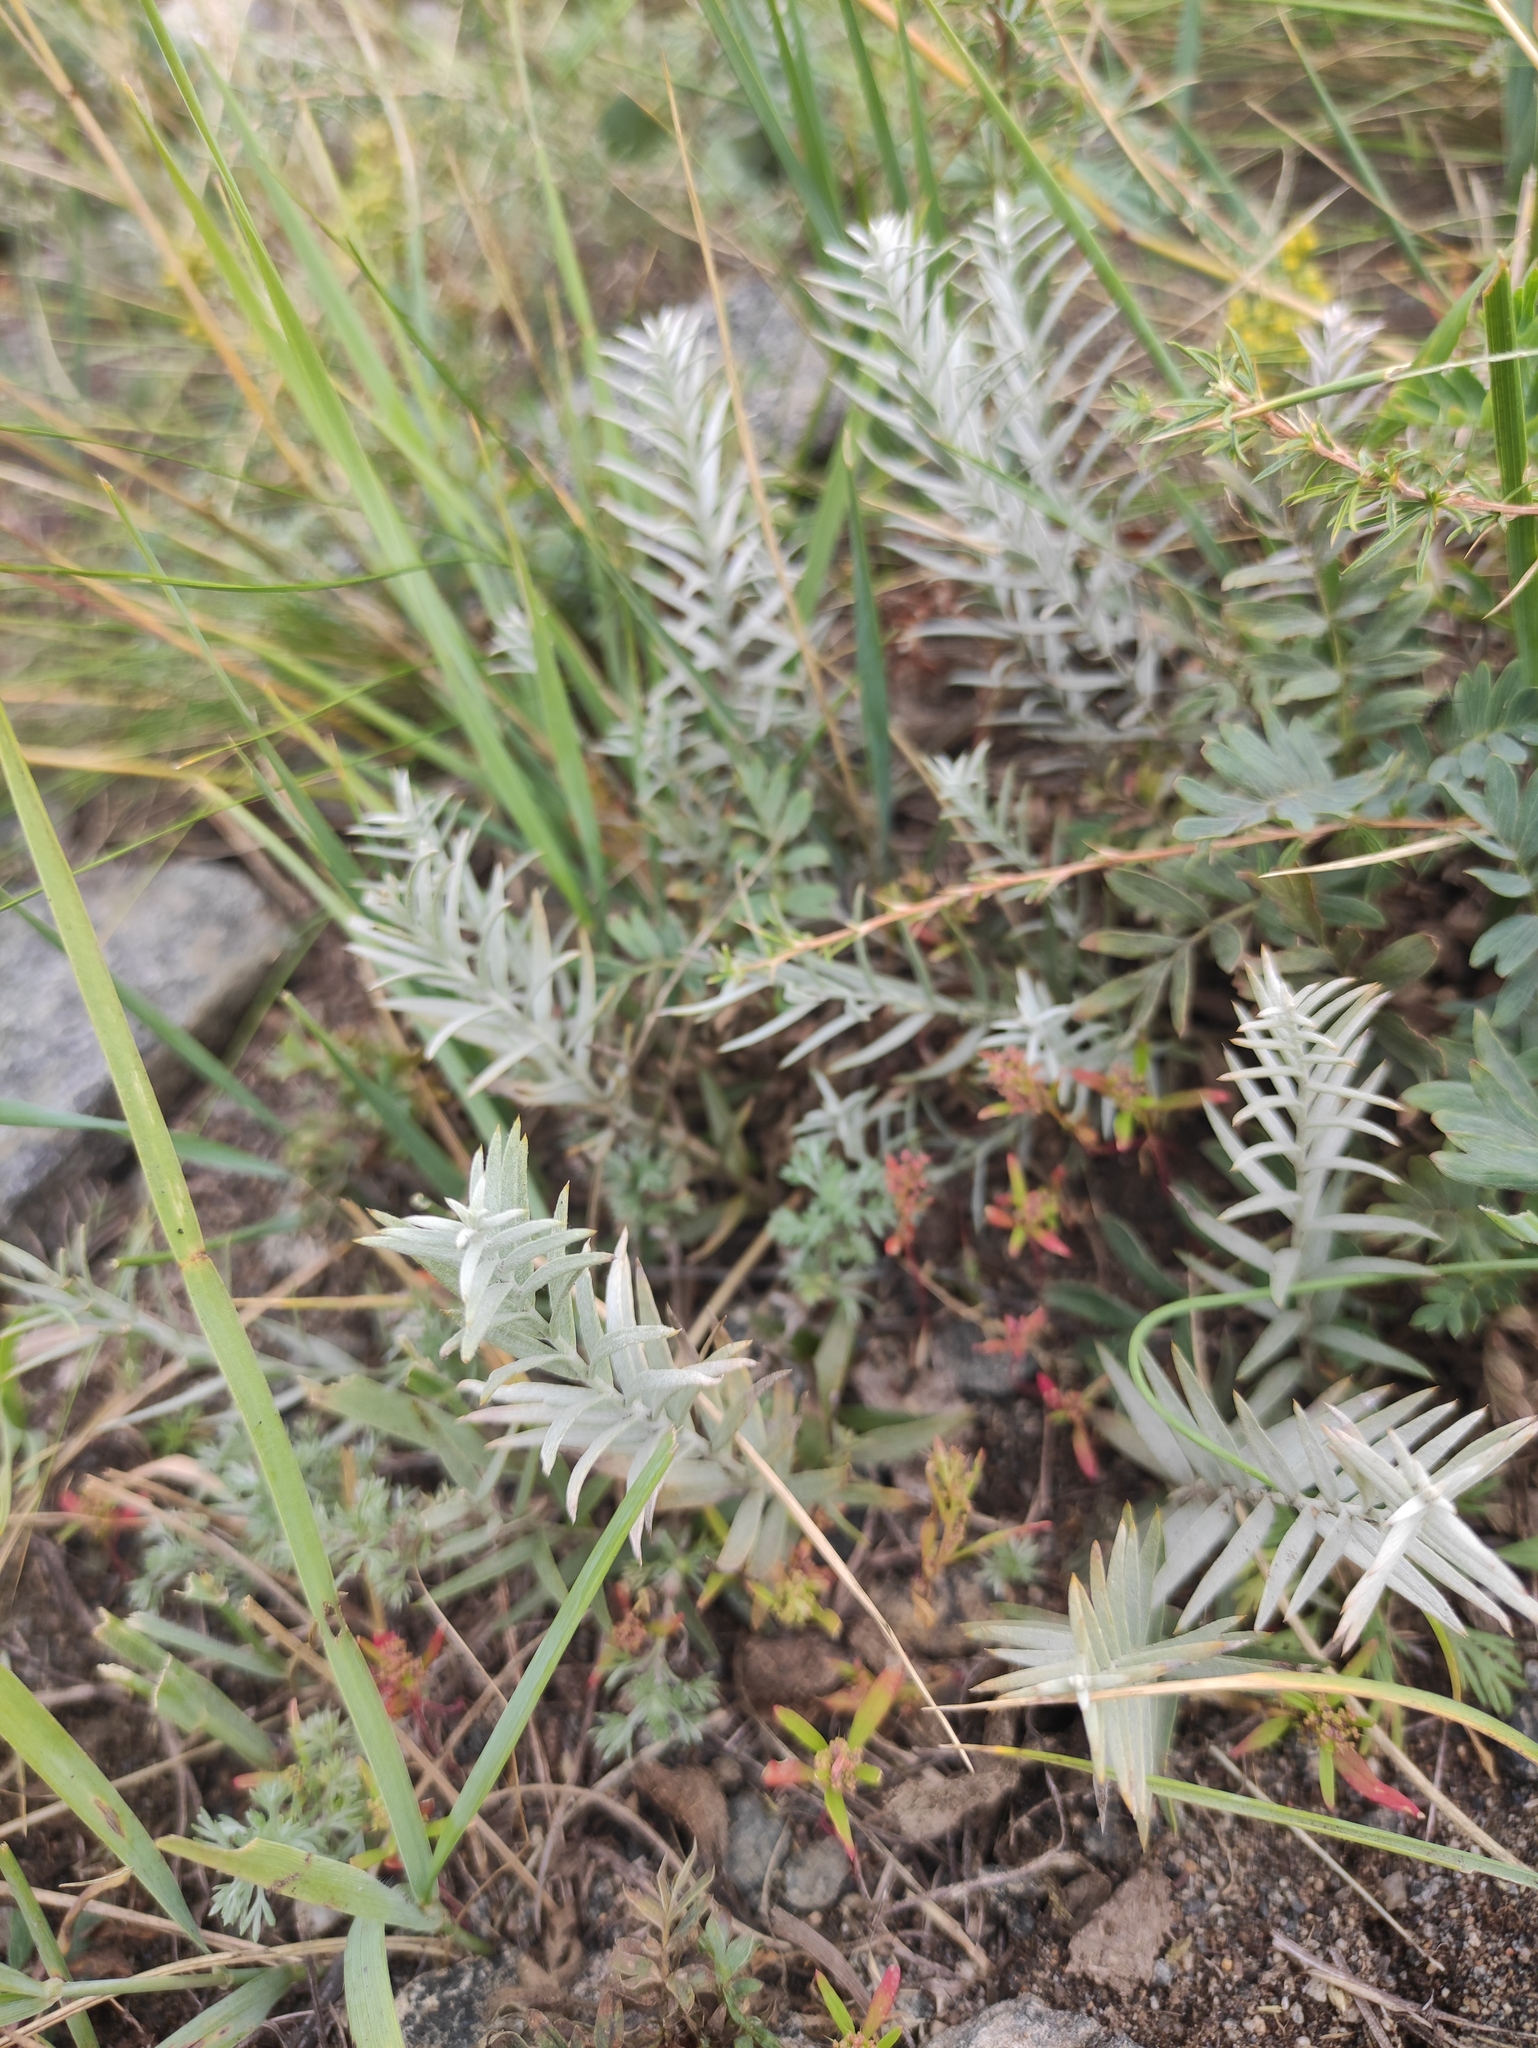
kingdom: Plantae
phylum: Tracheophyta
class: Magnoliopsida
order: Lamiales
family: Orobanchaceae
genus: Cymbaria
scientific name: Cymbaria daurica
